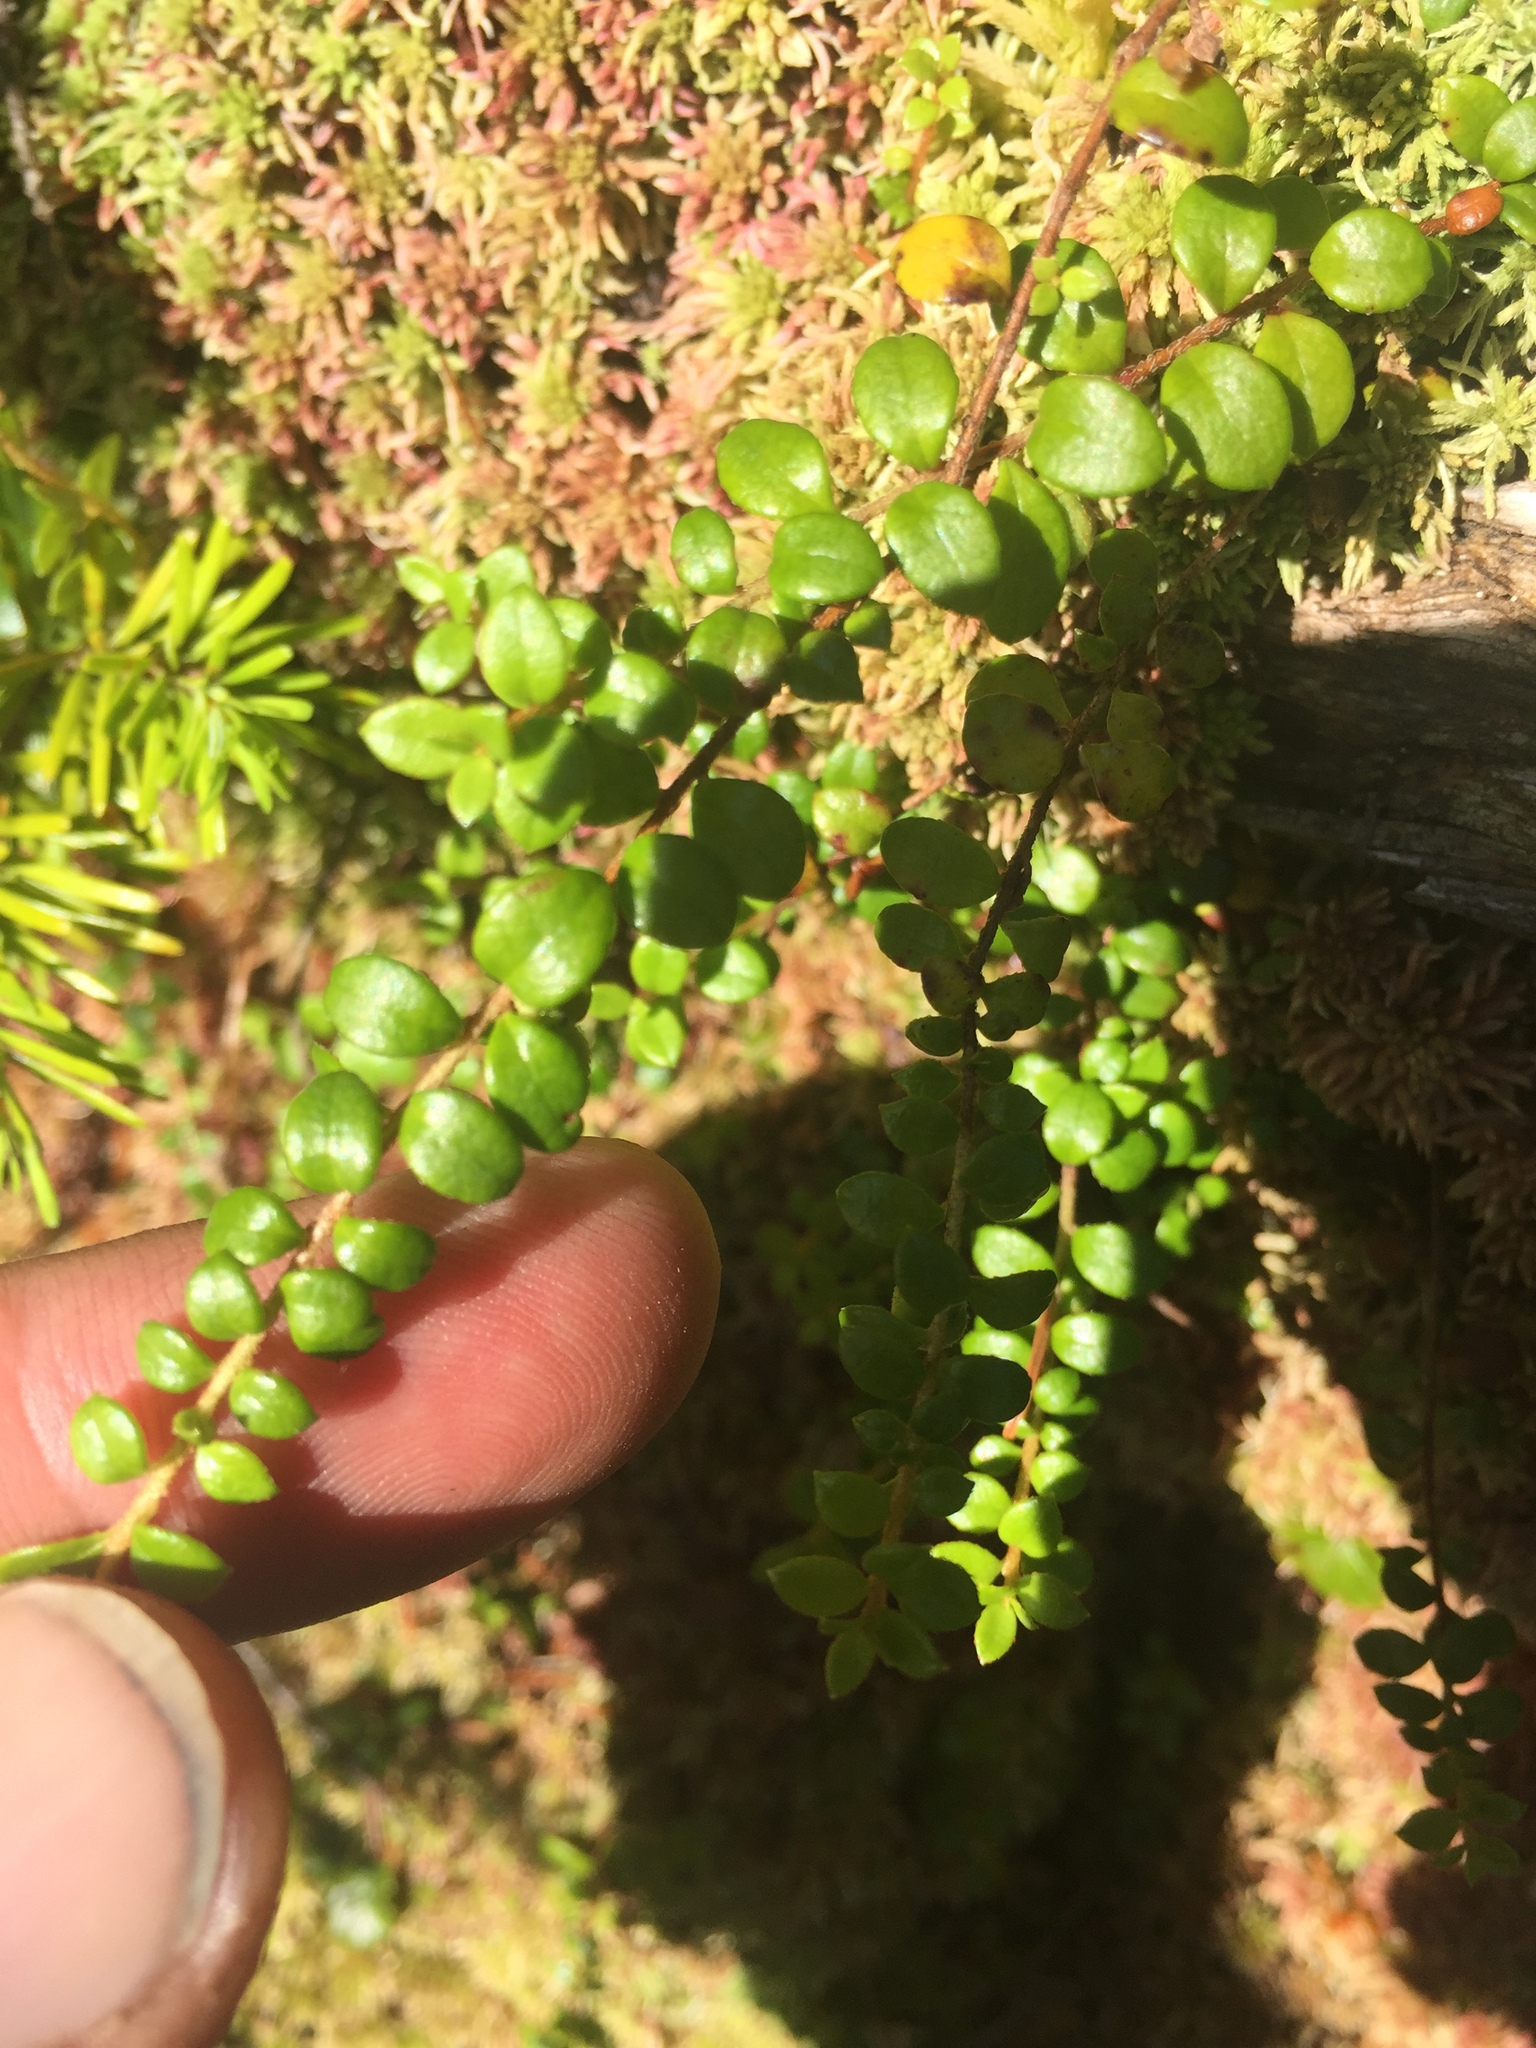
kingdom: Plantae
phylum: Tracheophyta
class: Magnoliopsida
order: Ericales
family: Ericaceae
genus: Gaultheria
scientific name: Gaultheria hispidula
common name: Cancer wintergreen
